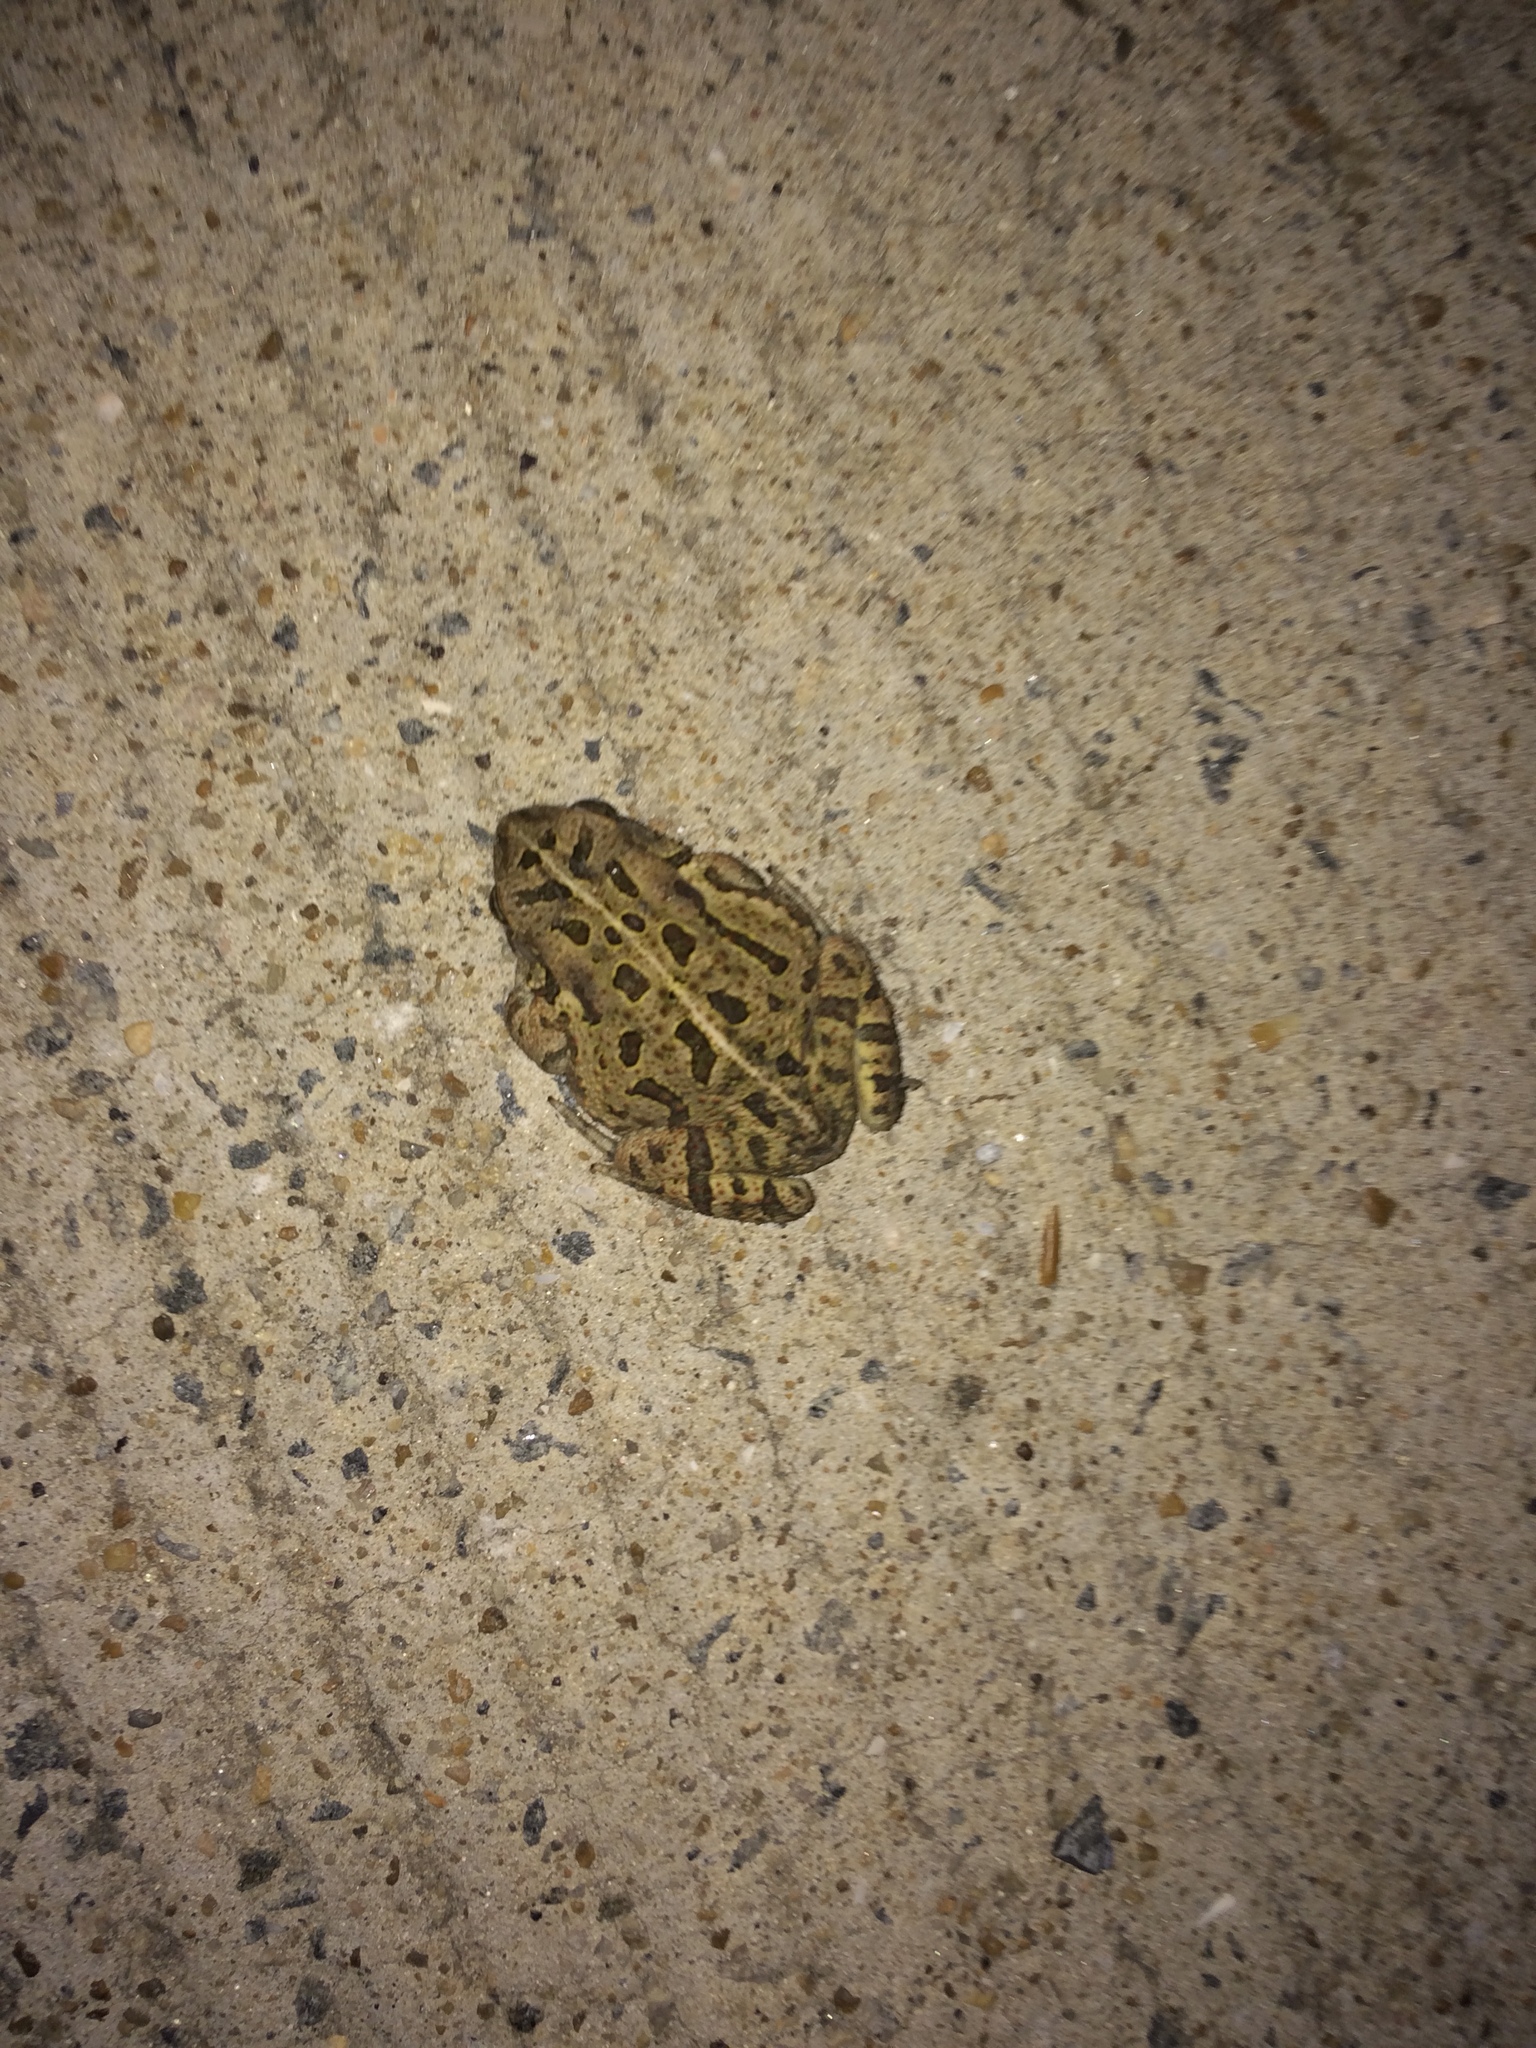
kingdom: Animalia
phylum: Chordata
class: Amphibia
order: Anura
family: Bufonidae
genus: Anaxyrus
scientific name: Anaxyrus fowleri
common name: Fowler's toad
